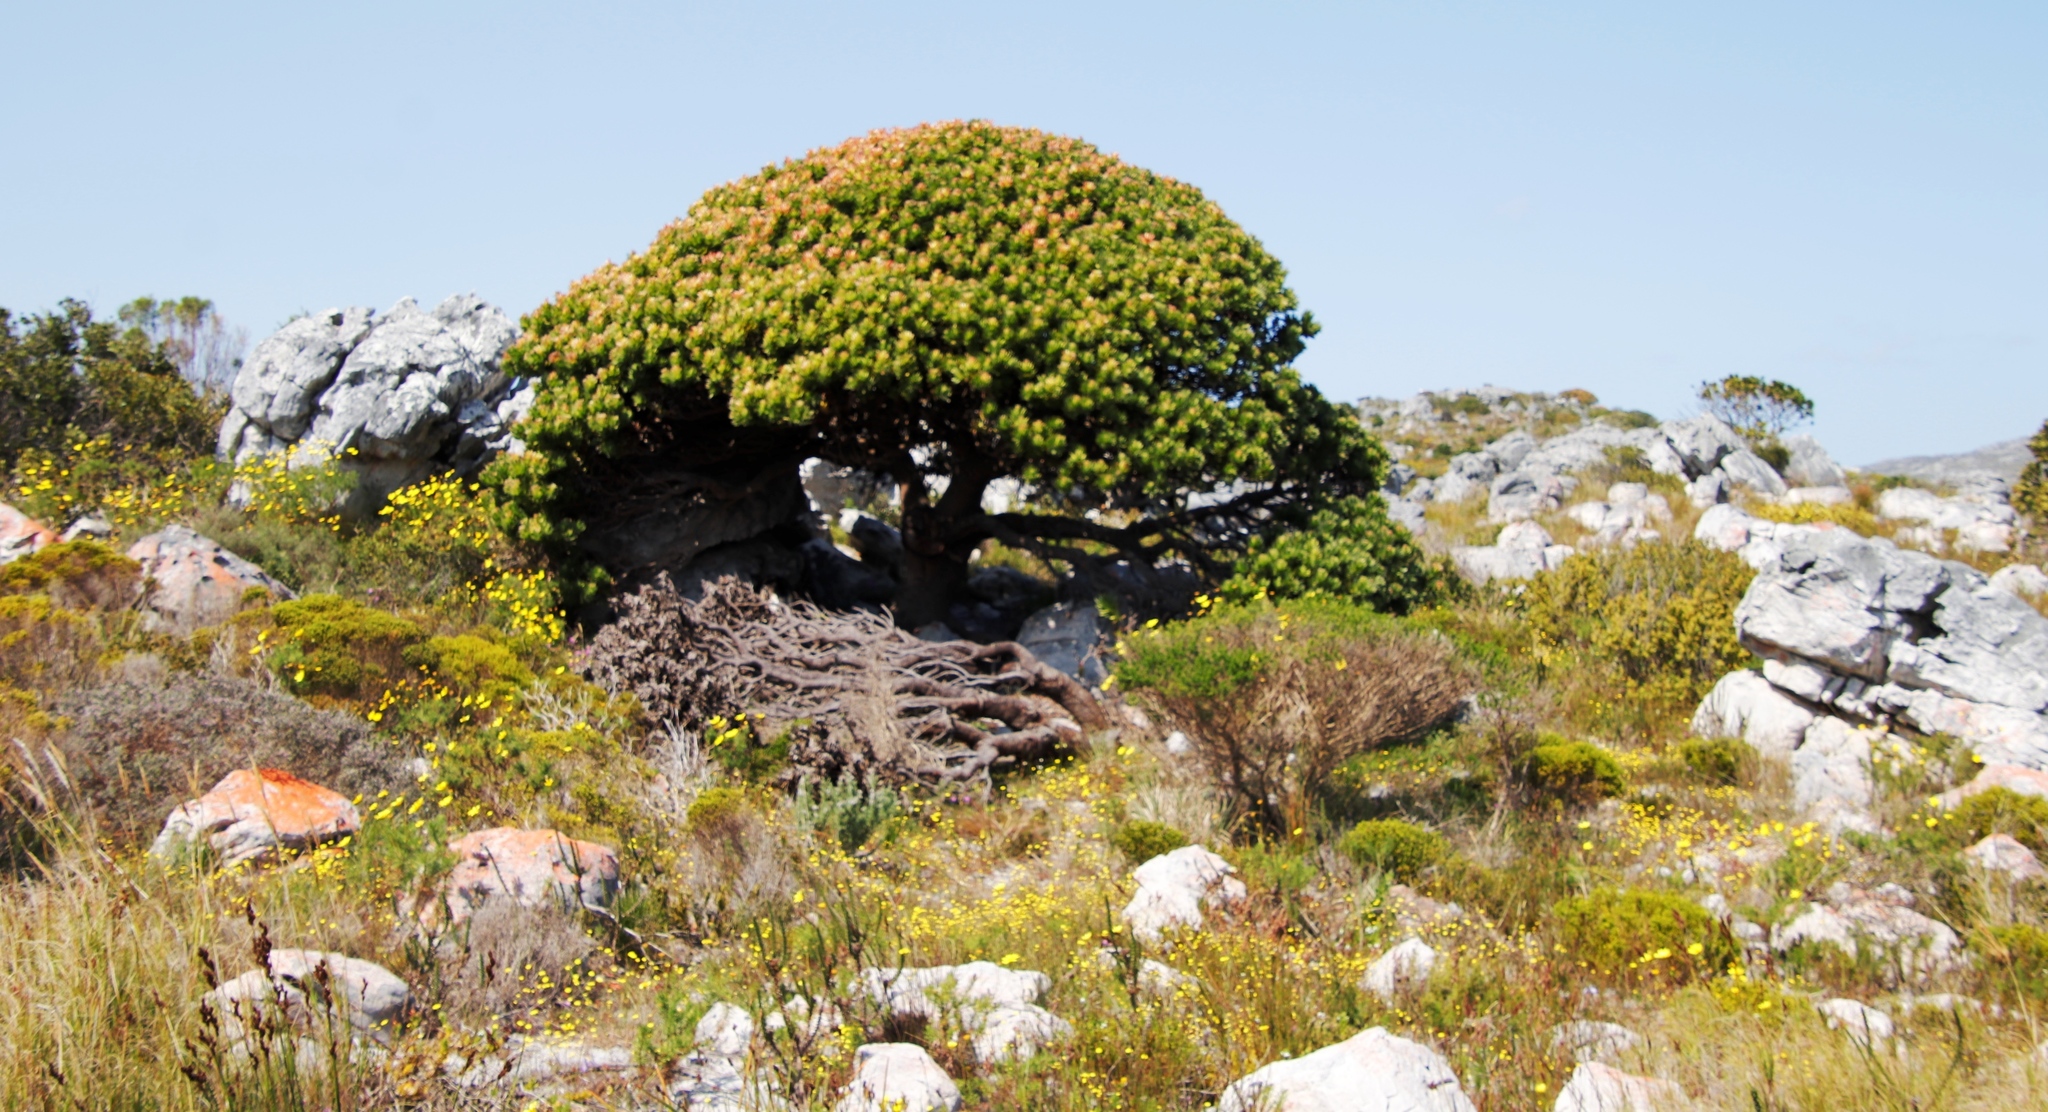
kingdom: Plantae
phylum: Tracheophyta
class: Magnoliopsida
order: Proteales
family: Proteaceae
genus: Mimetes
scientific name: Mimetes fimbriifolius
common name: Fringed bottlebrush
